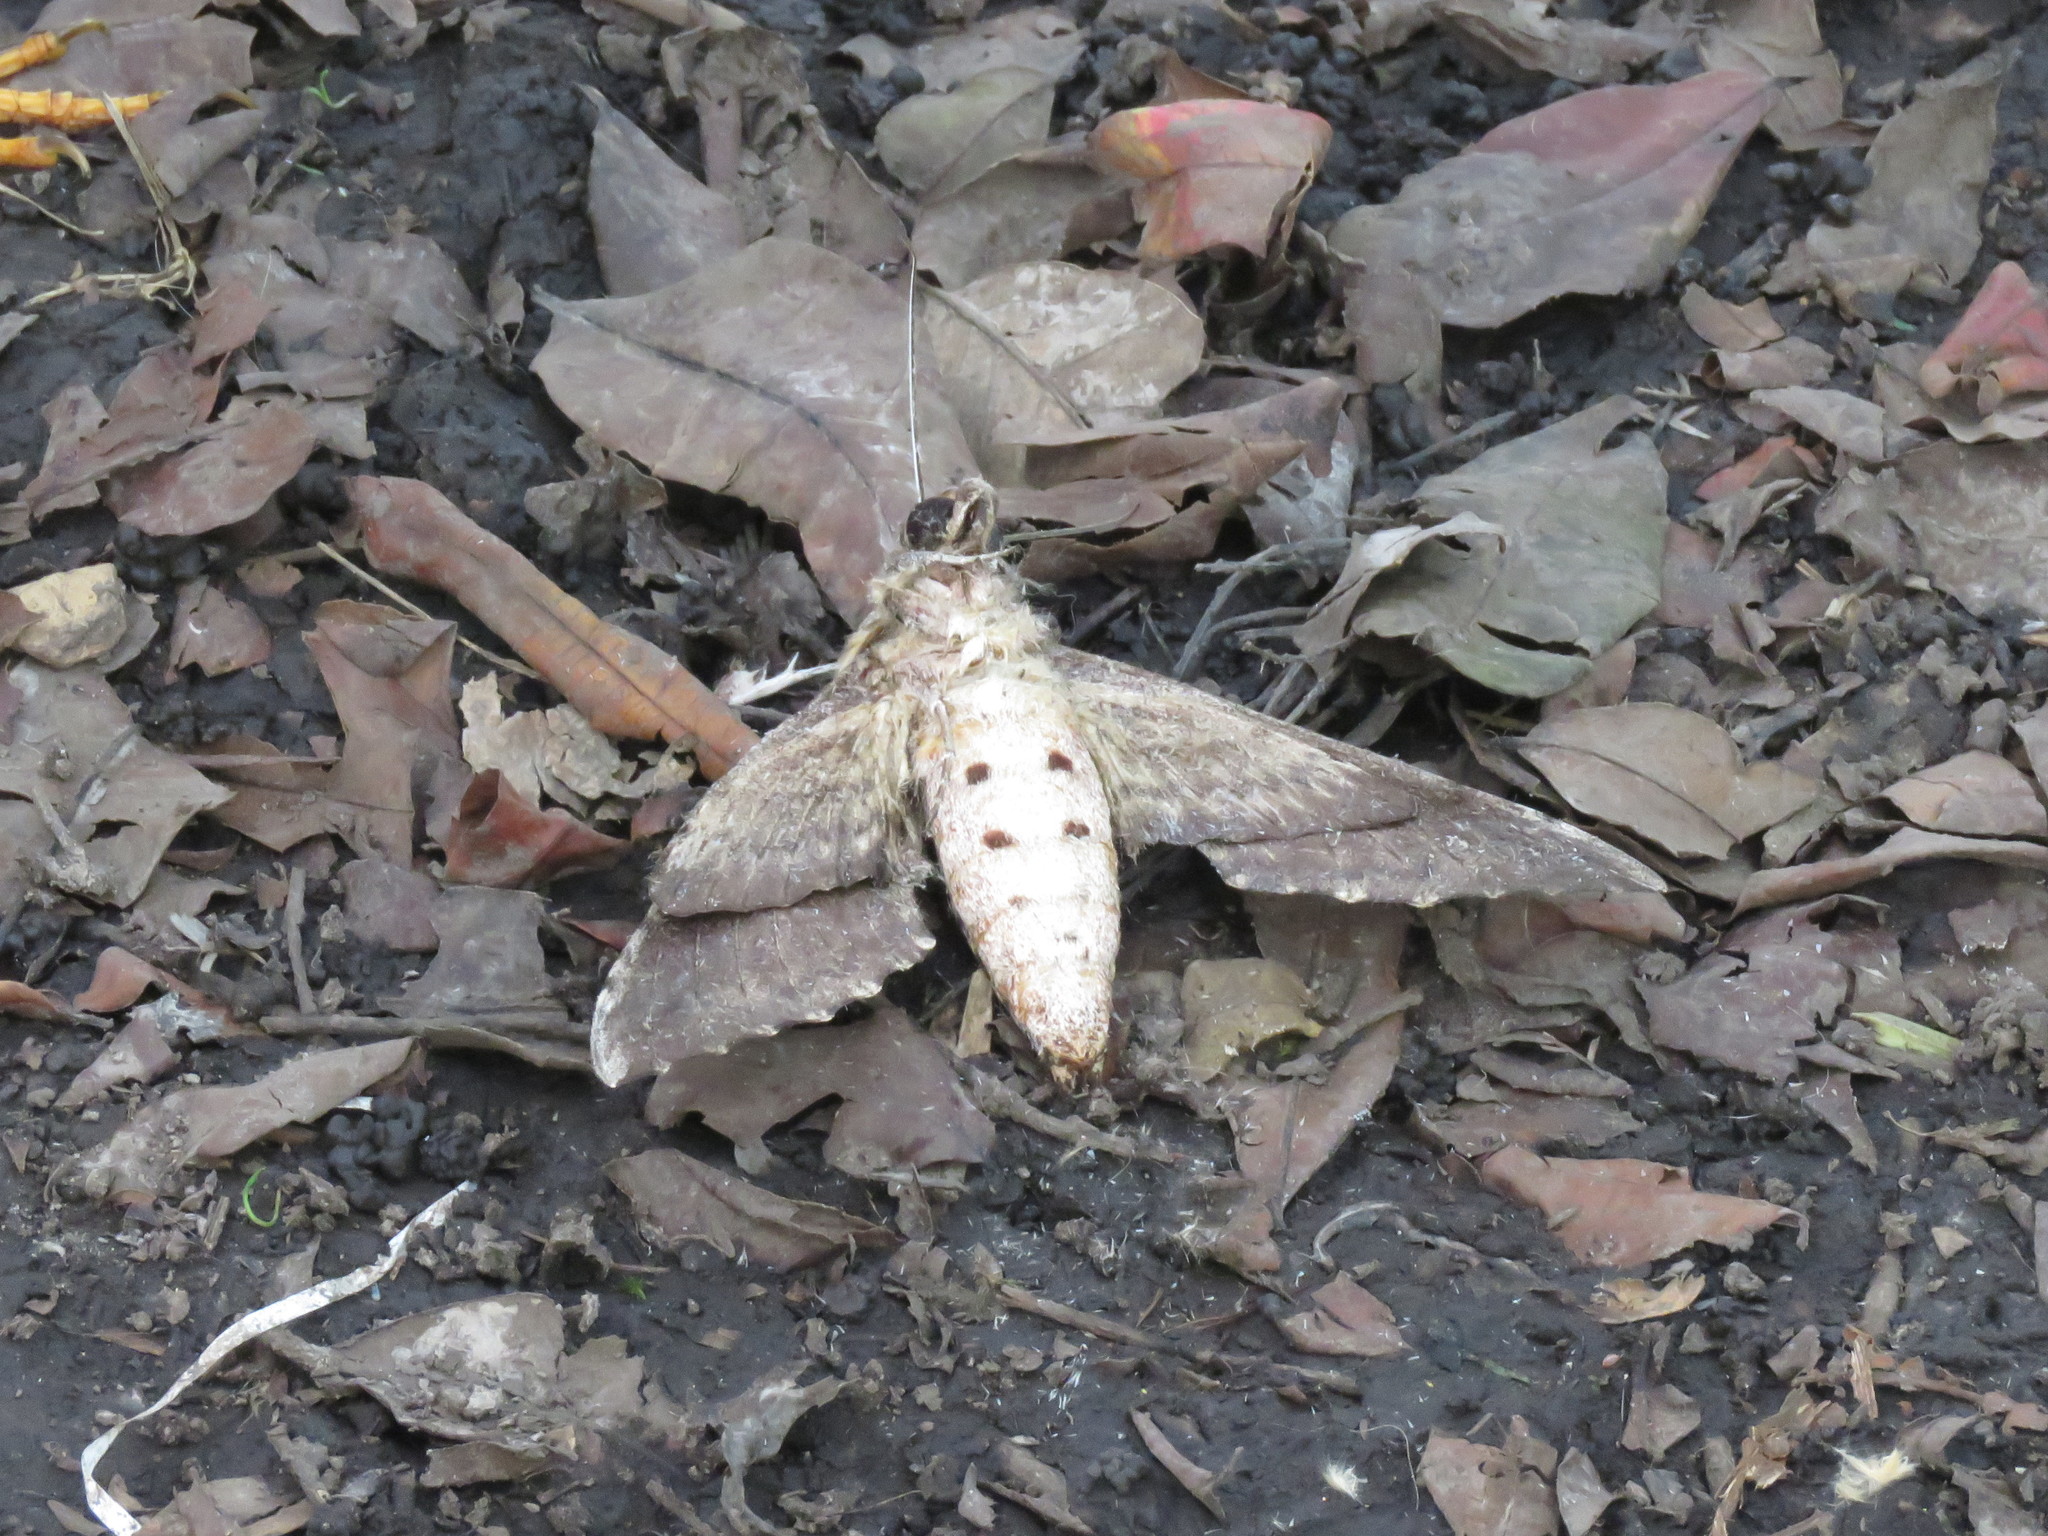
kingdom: Animalia
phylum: Chordata
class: Aves
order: Passeriformes
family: Turdidae
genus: Turdus
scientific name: Turdus fuscater
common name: Great thrush
